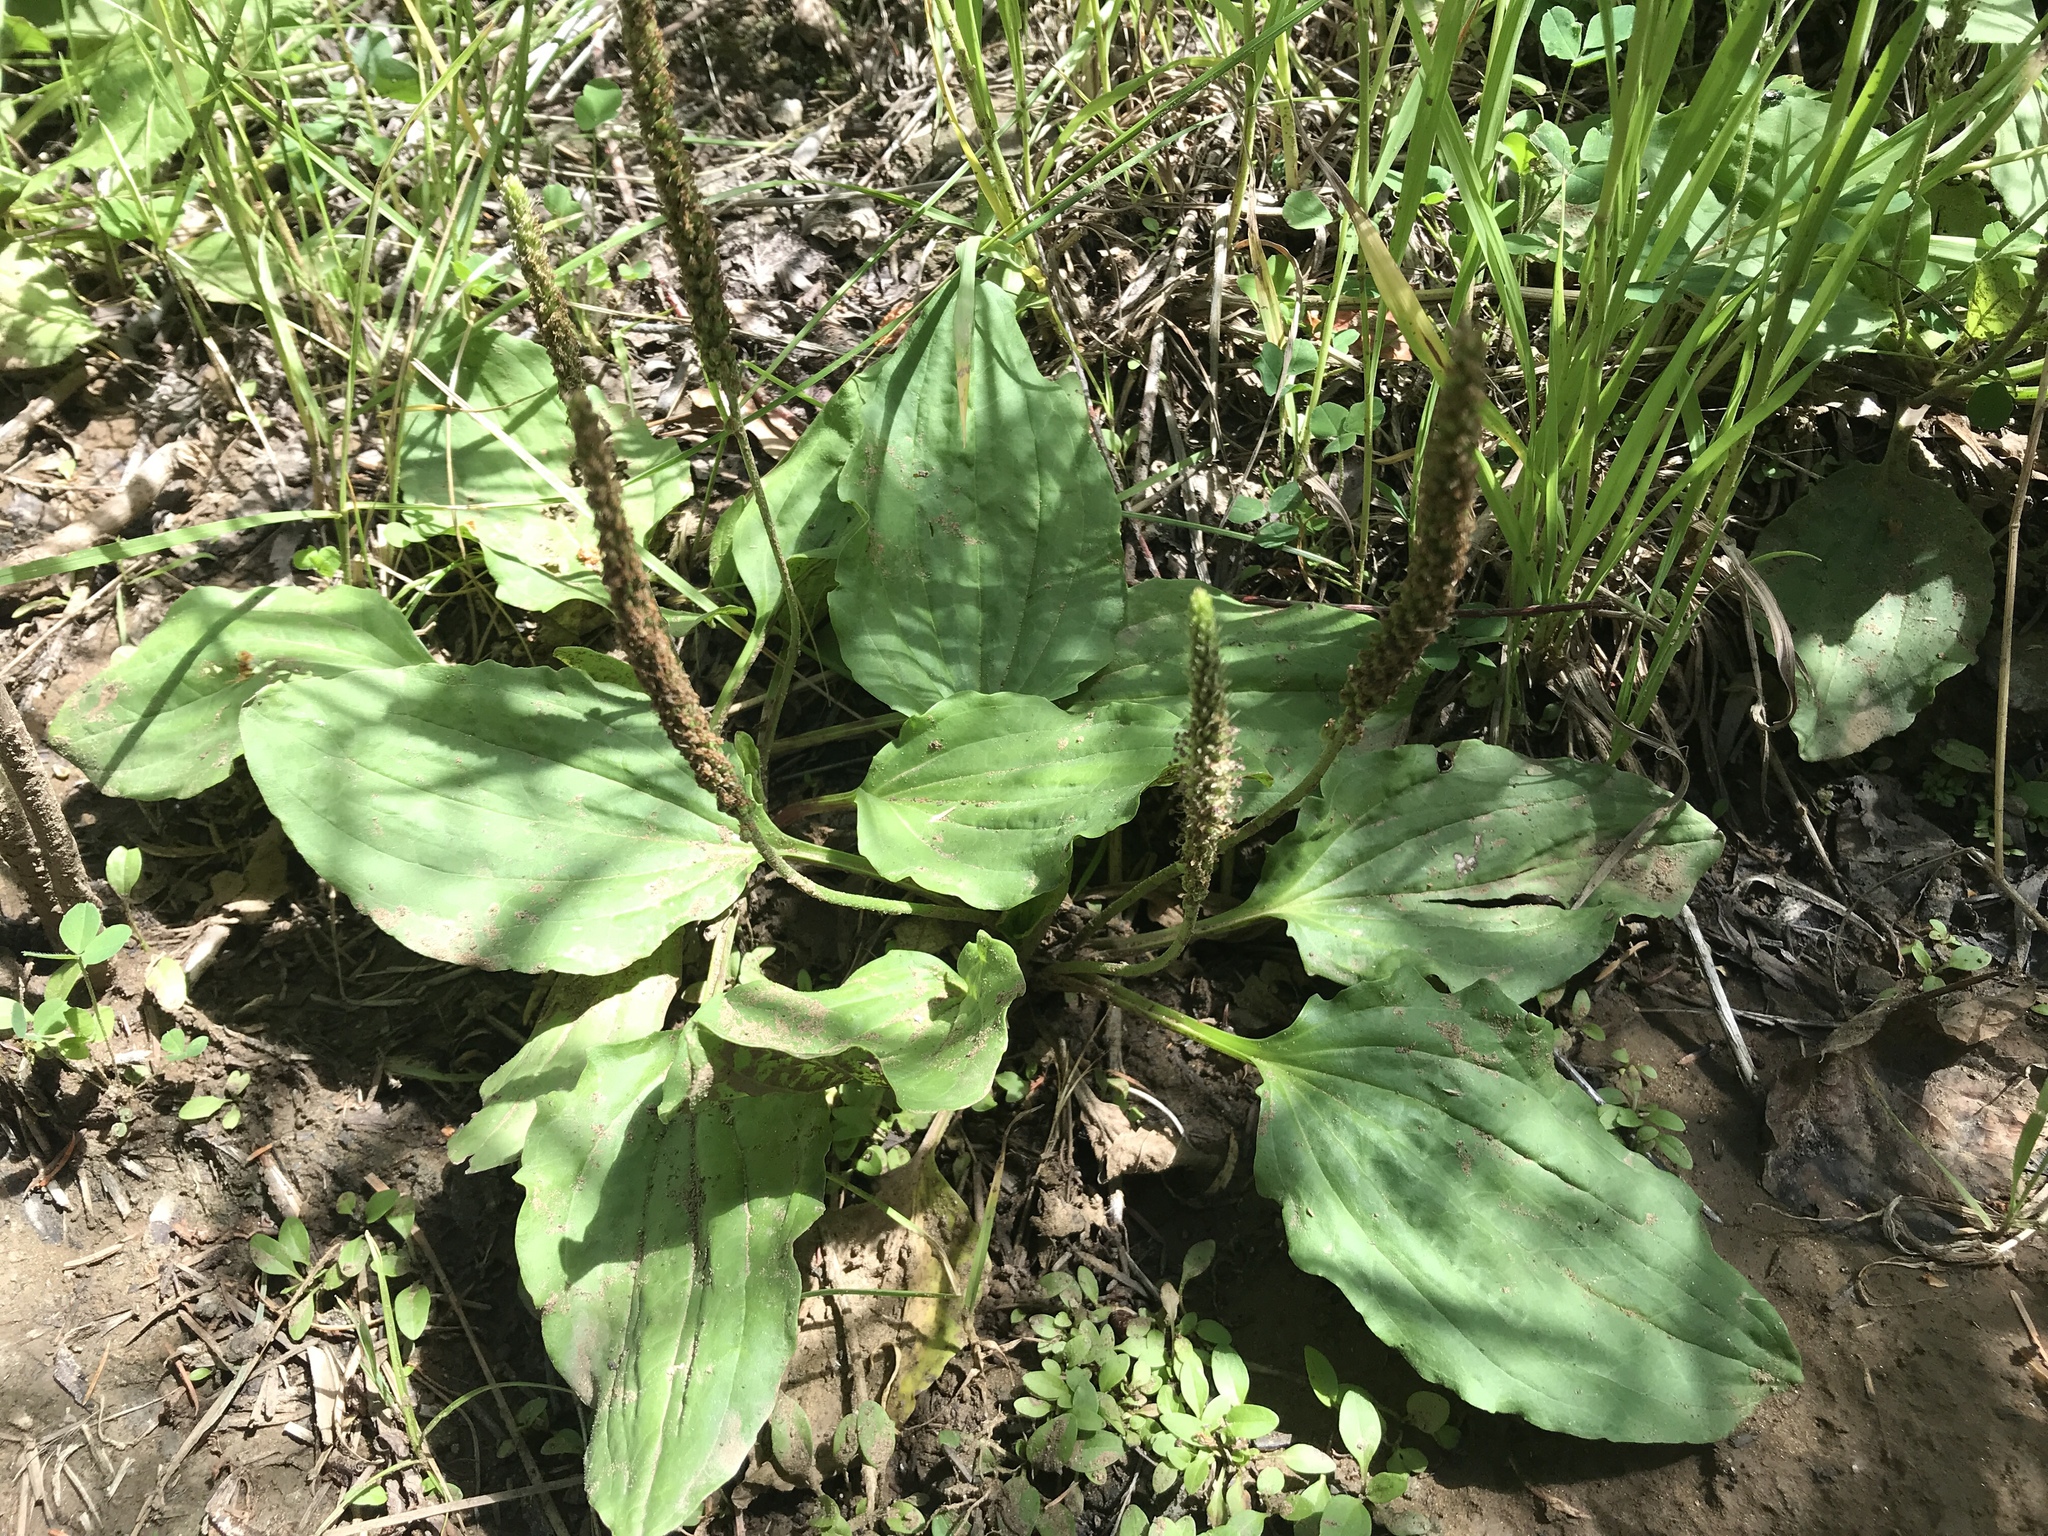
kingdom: Plantae
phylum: Tracheophyta
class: Magnoliopsida
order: Lamiales
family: Plantaginaceae
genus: Plantago
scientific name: Plantago major
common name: Common plantain
